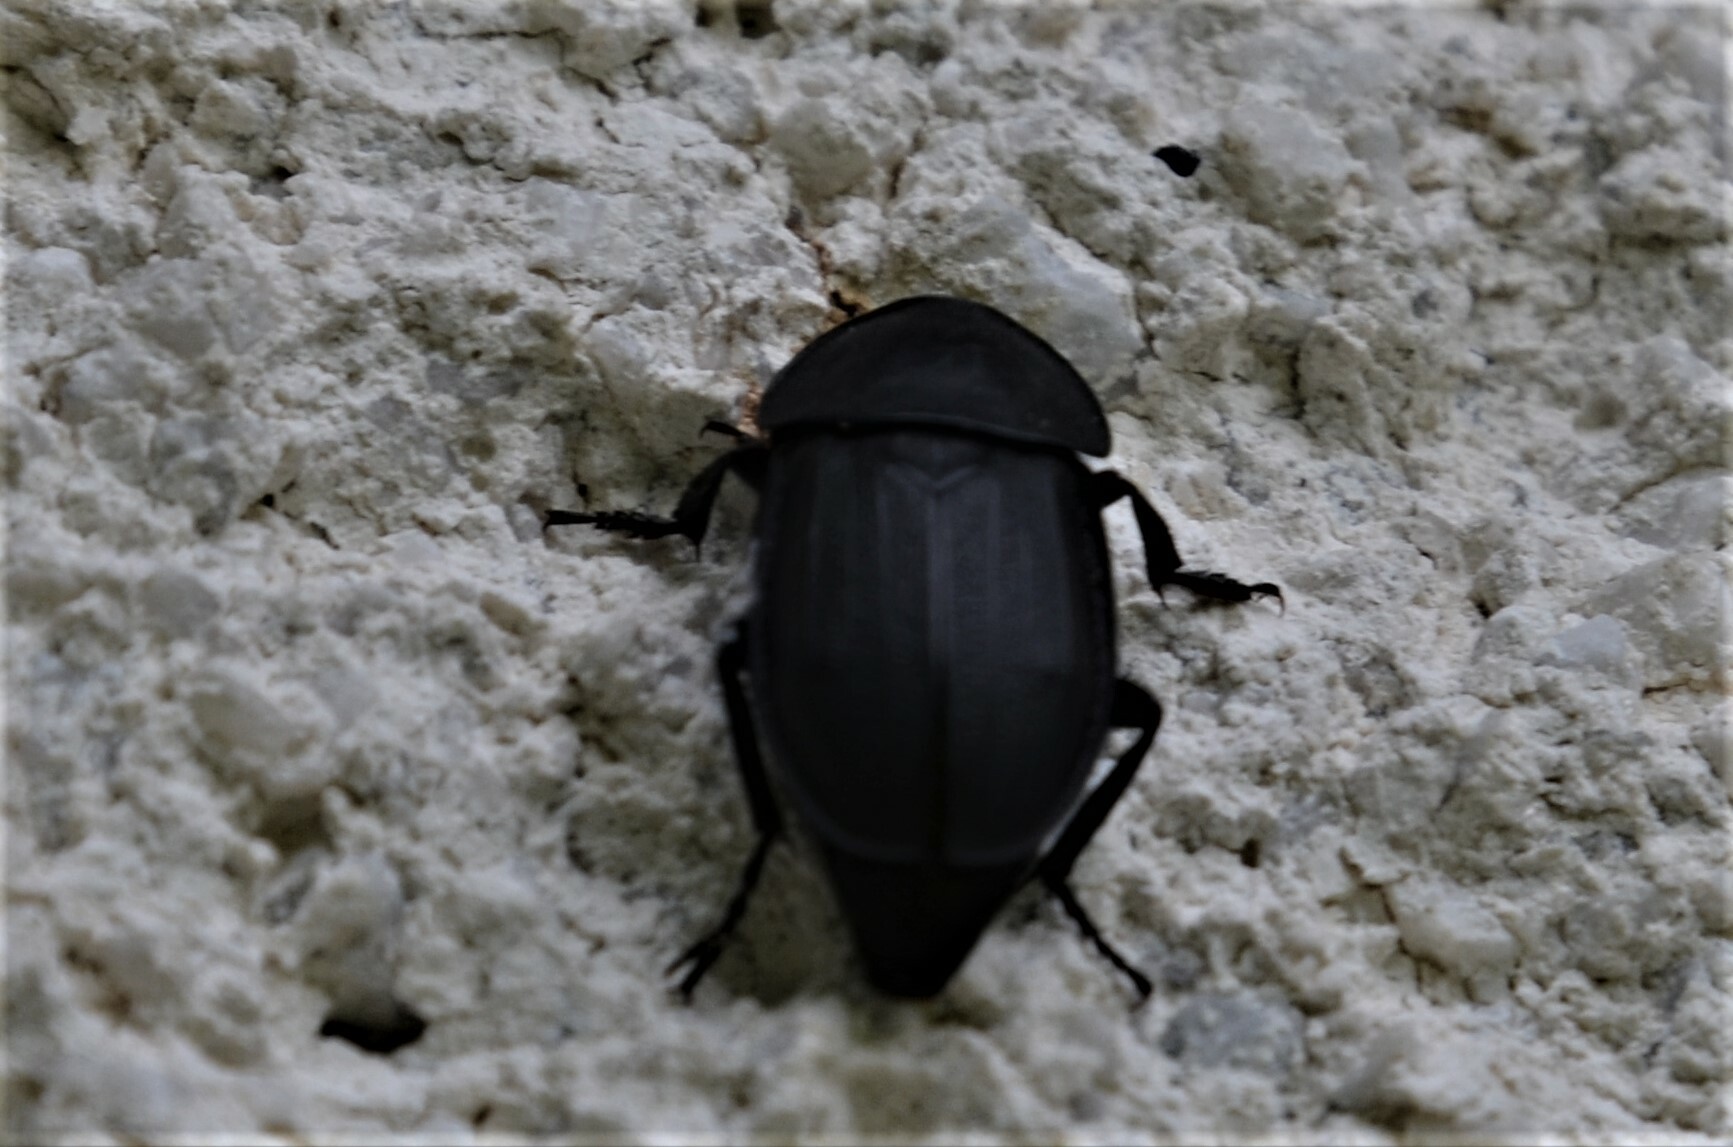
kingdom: Animalia
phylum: Arthropoda
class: Insecta
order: Coleoptera
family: Staphylinidae
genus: Silpha
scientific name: Silpha obscura
